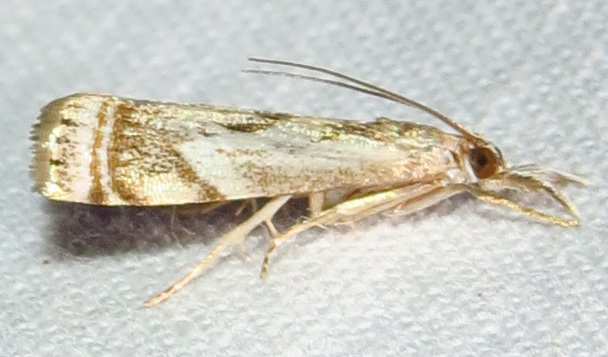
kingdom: Animalia
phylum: Arthropoda
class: Insecta
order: Lepidoptera
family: Crambidae
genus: Microcrambus
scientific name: Microcrambus elegans
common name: Elegant grass-veneer
